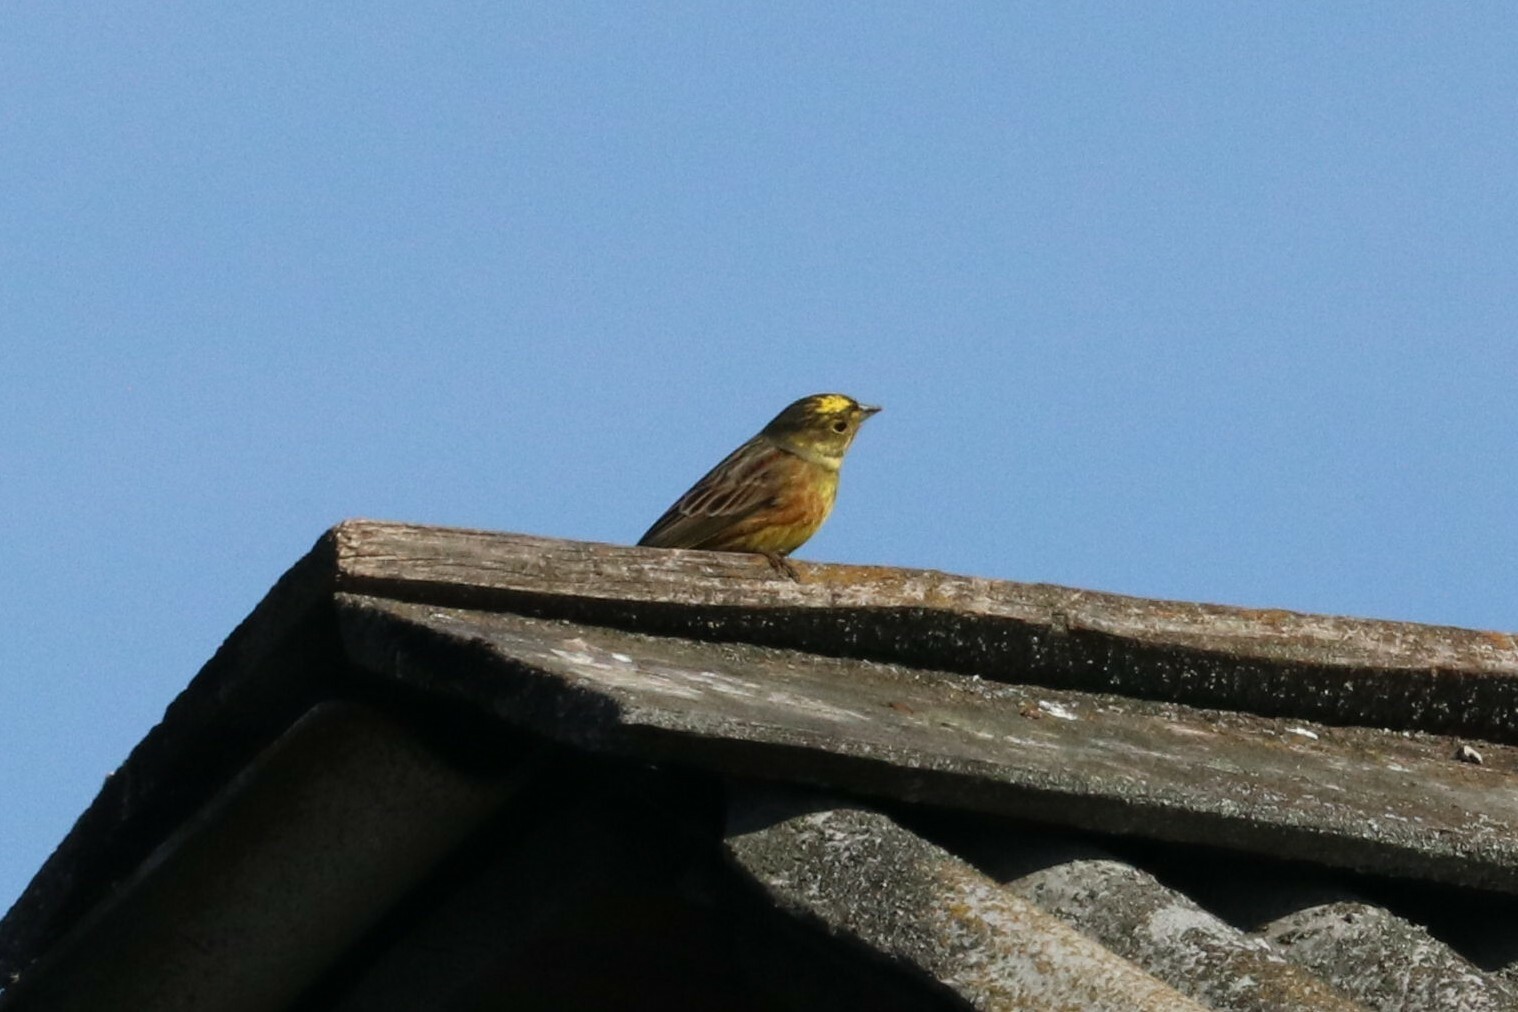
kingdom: Animalia
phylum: Chordata
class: Aves
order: Passeriformes
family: Emberizidae
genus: Emberiza
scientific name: Emberiza citrinella
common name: Yellowhammer
